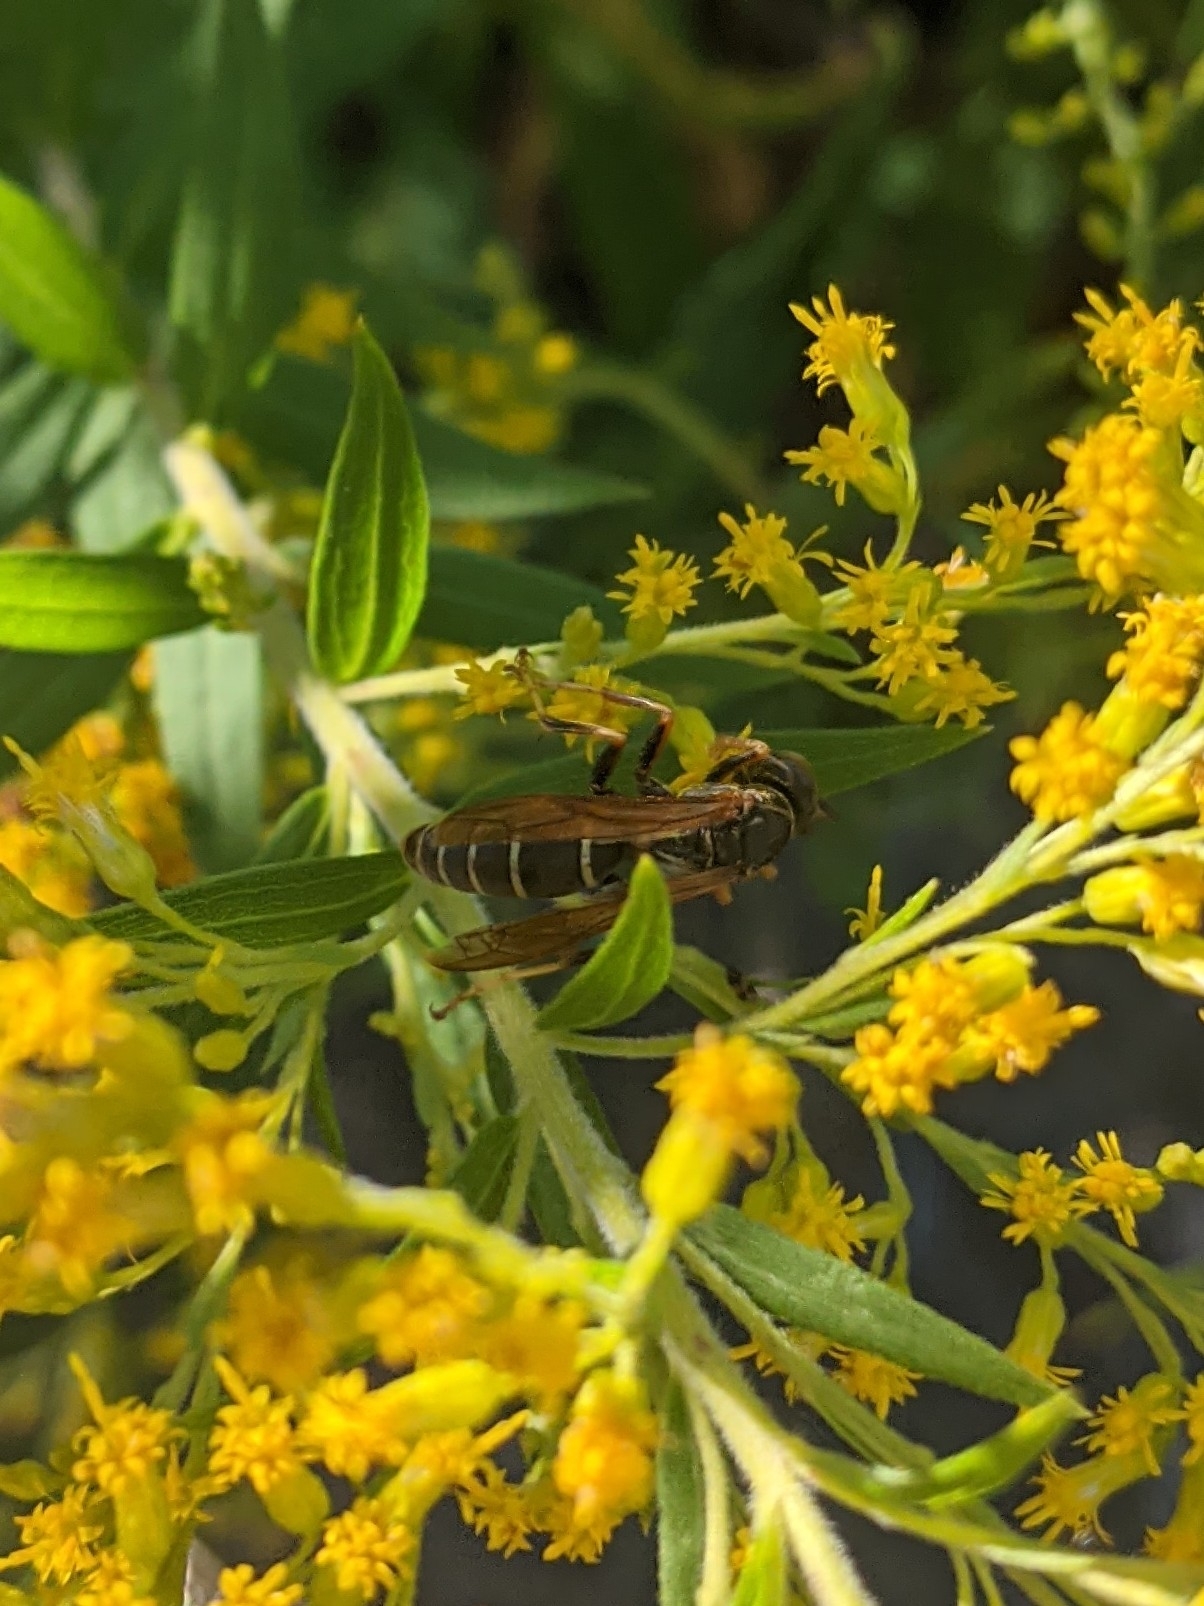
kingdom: Animalia
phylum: Arthropoda
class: Insecta
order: Hymenoptera
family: Eumenidae
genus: Polistes
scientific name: Polistes fuscatus
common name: Dark paper wasp
